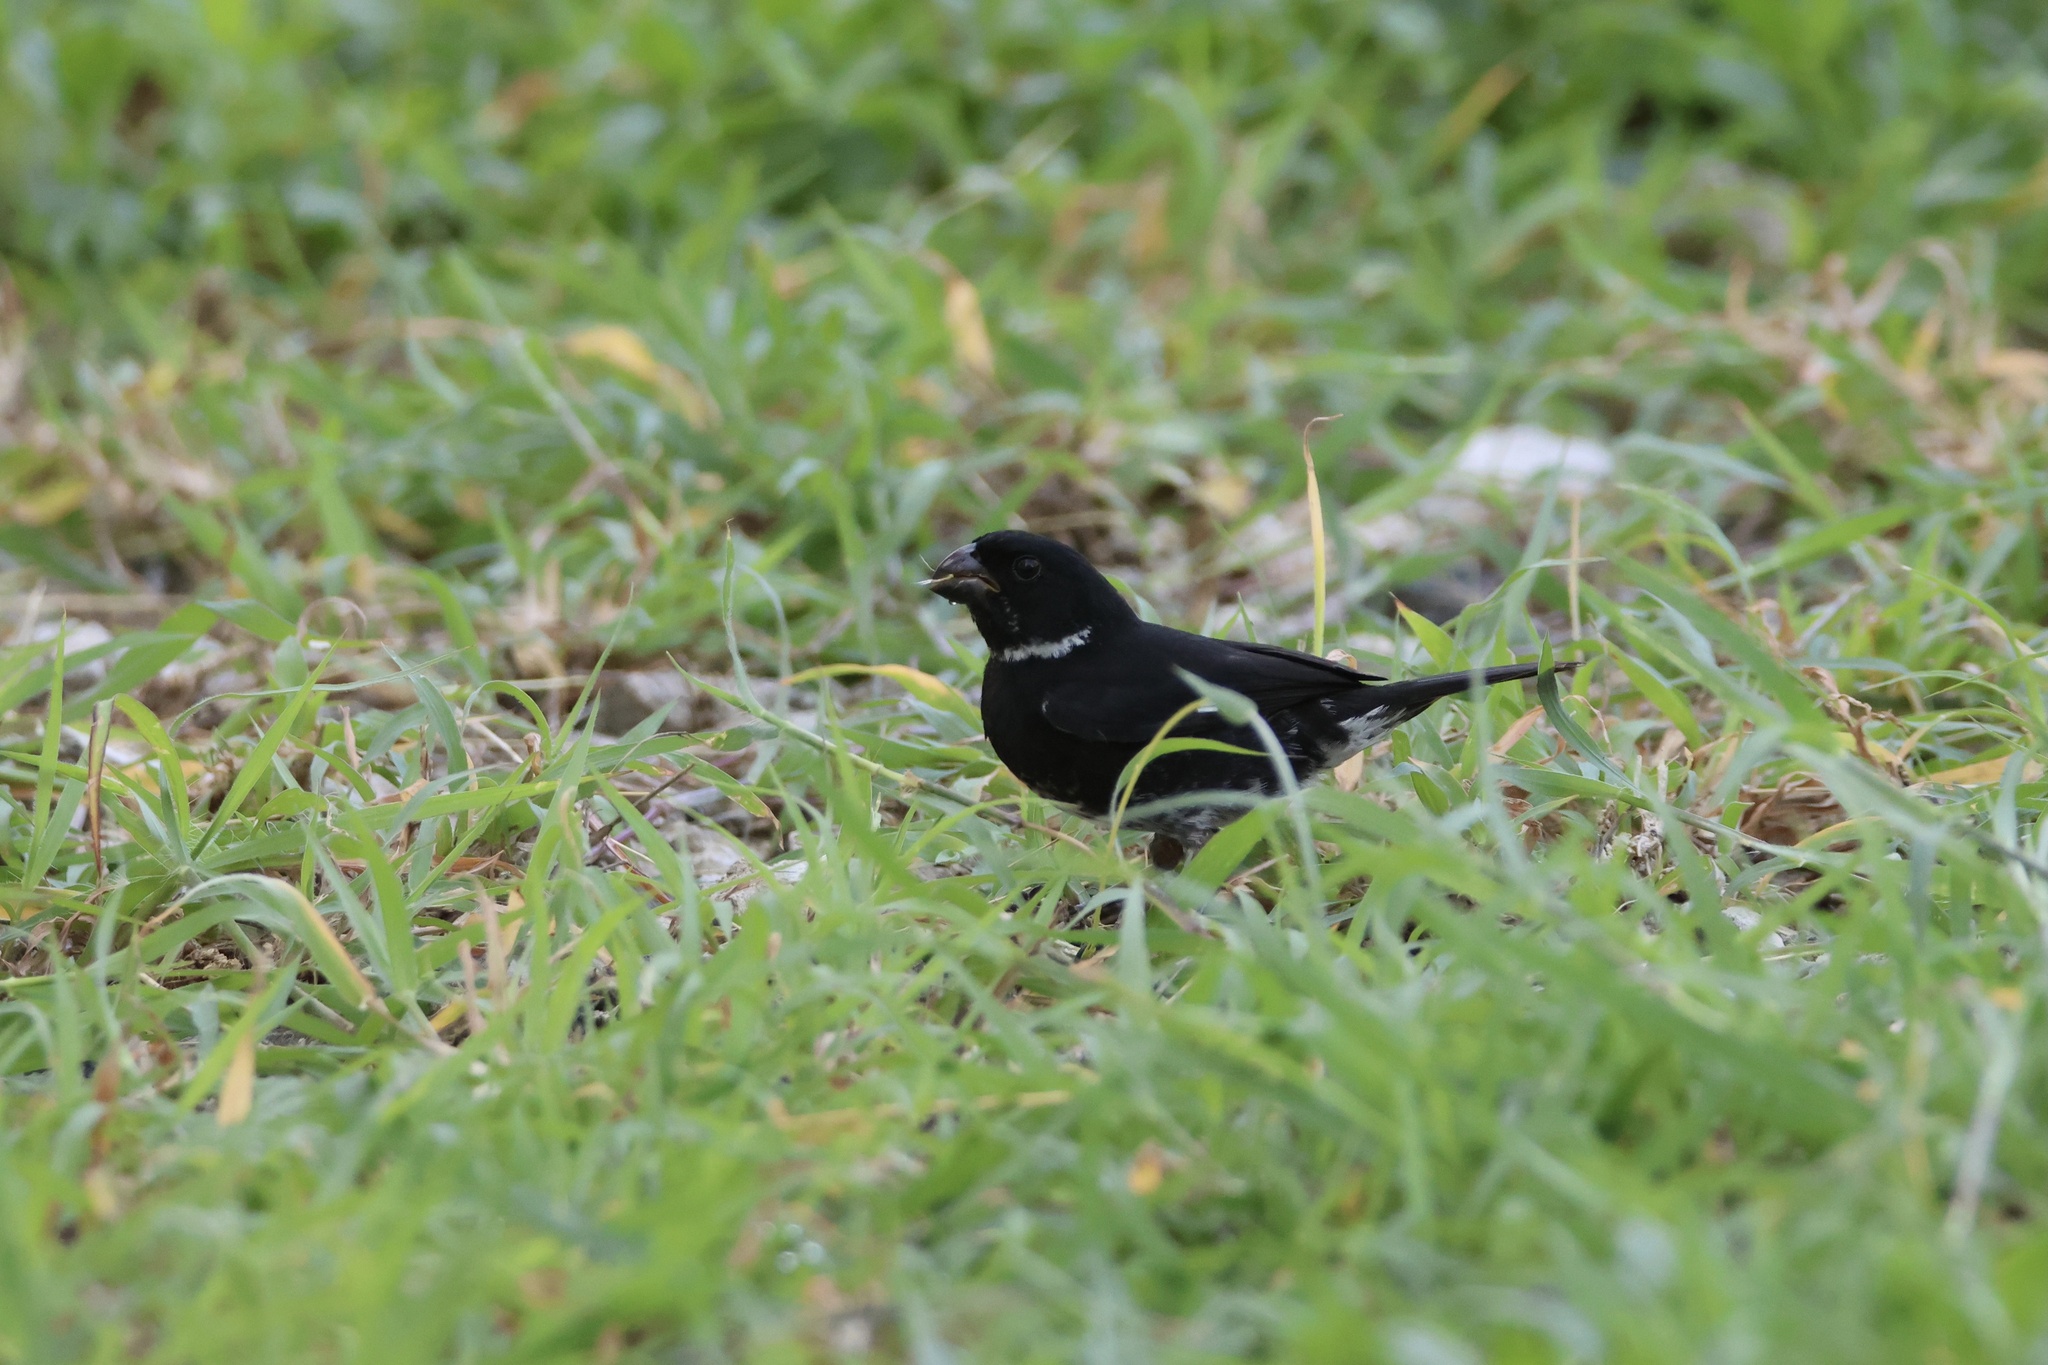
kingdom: Animalia
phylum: Chordata
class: Aves
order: Passeriformes
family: Thraupidae
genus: Sporophila
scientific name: Sporophila corvina
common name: Variable seedeater
